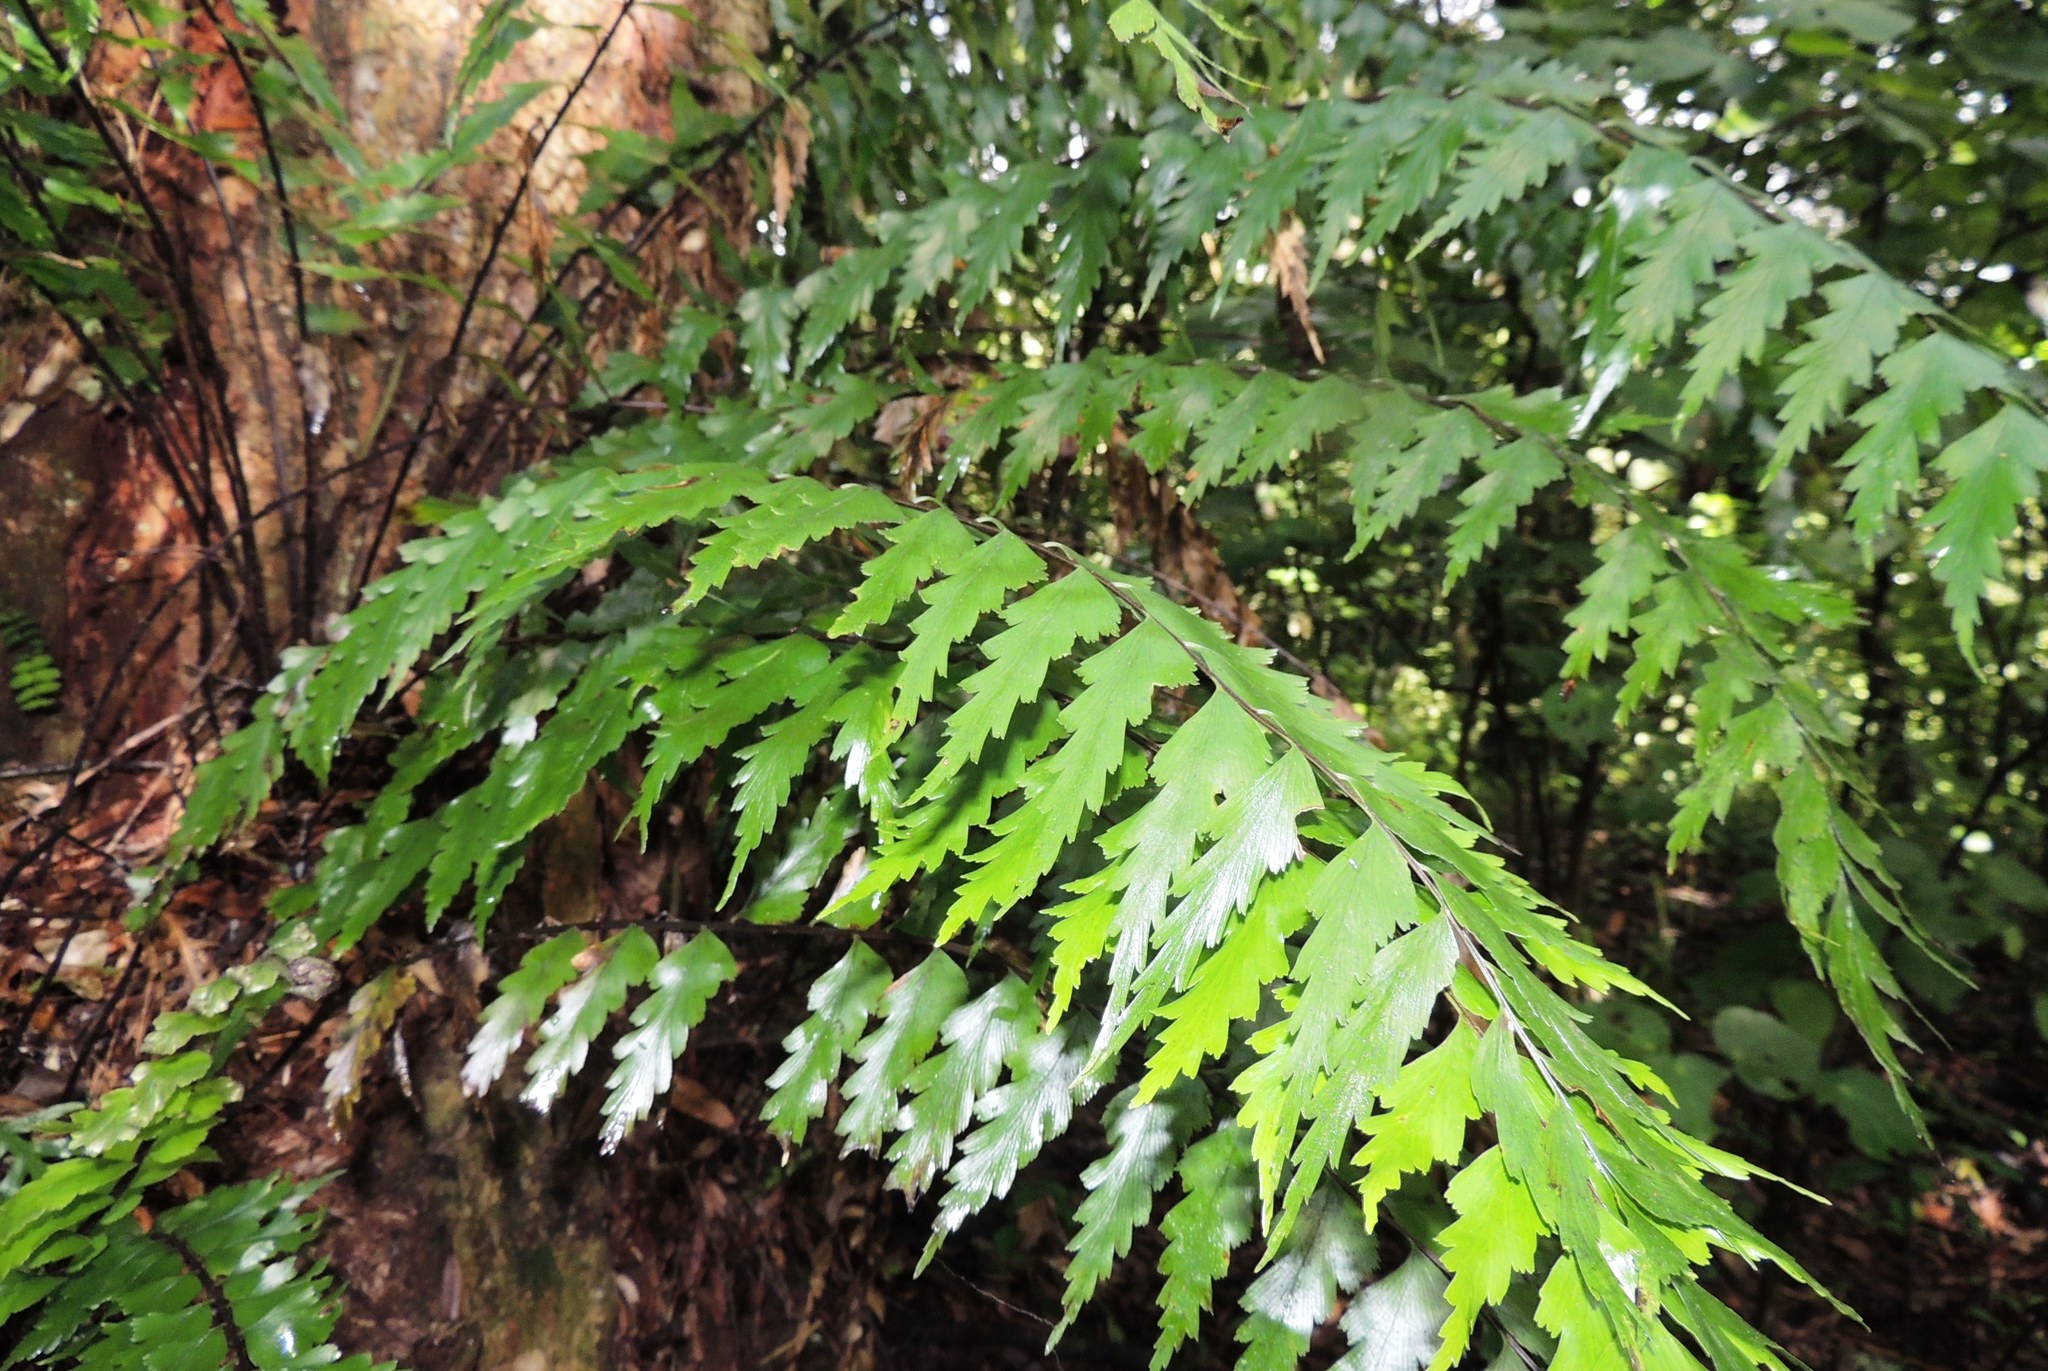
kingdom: Plantae
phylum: Tracheophyta
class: Polypodiopsida
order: Polypodiales
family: Aspleniaceae
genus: Asplenium
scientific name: Asplenium polyodon
